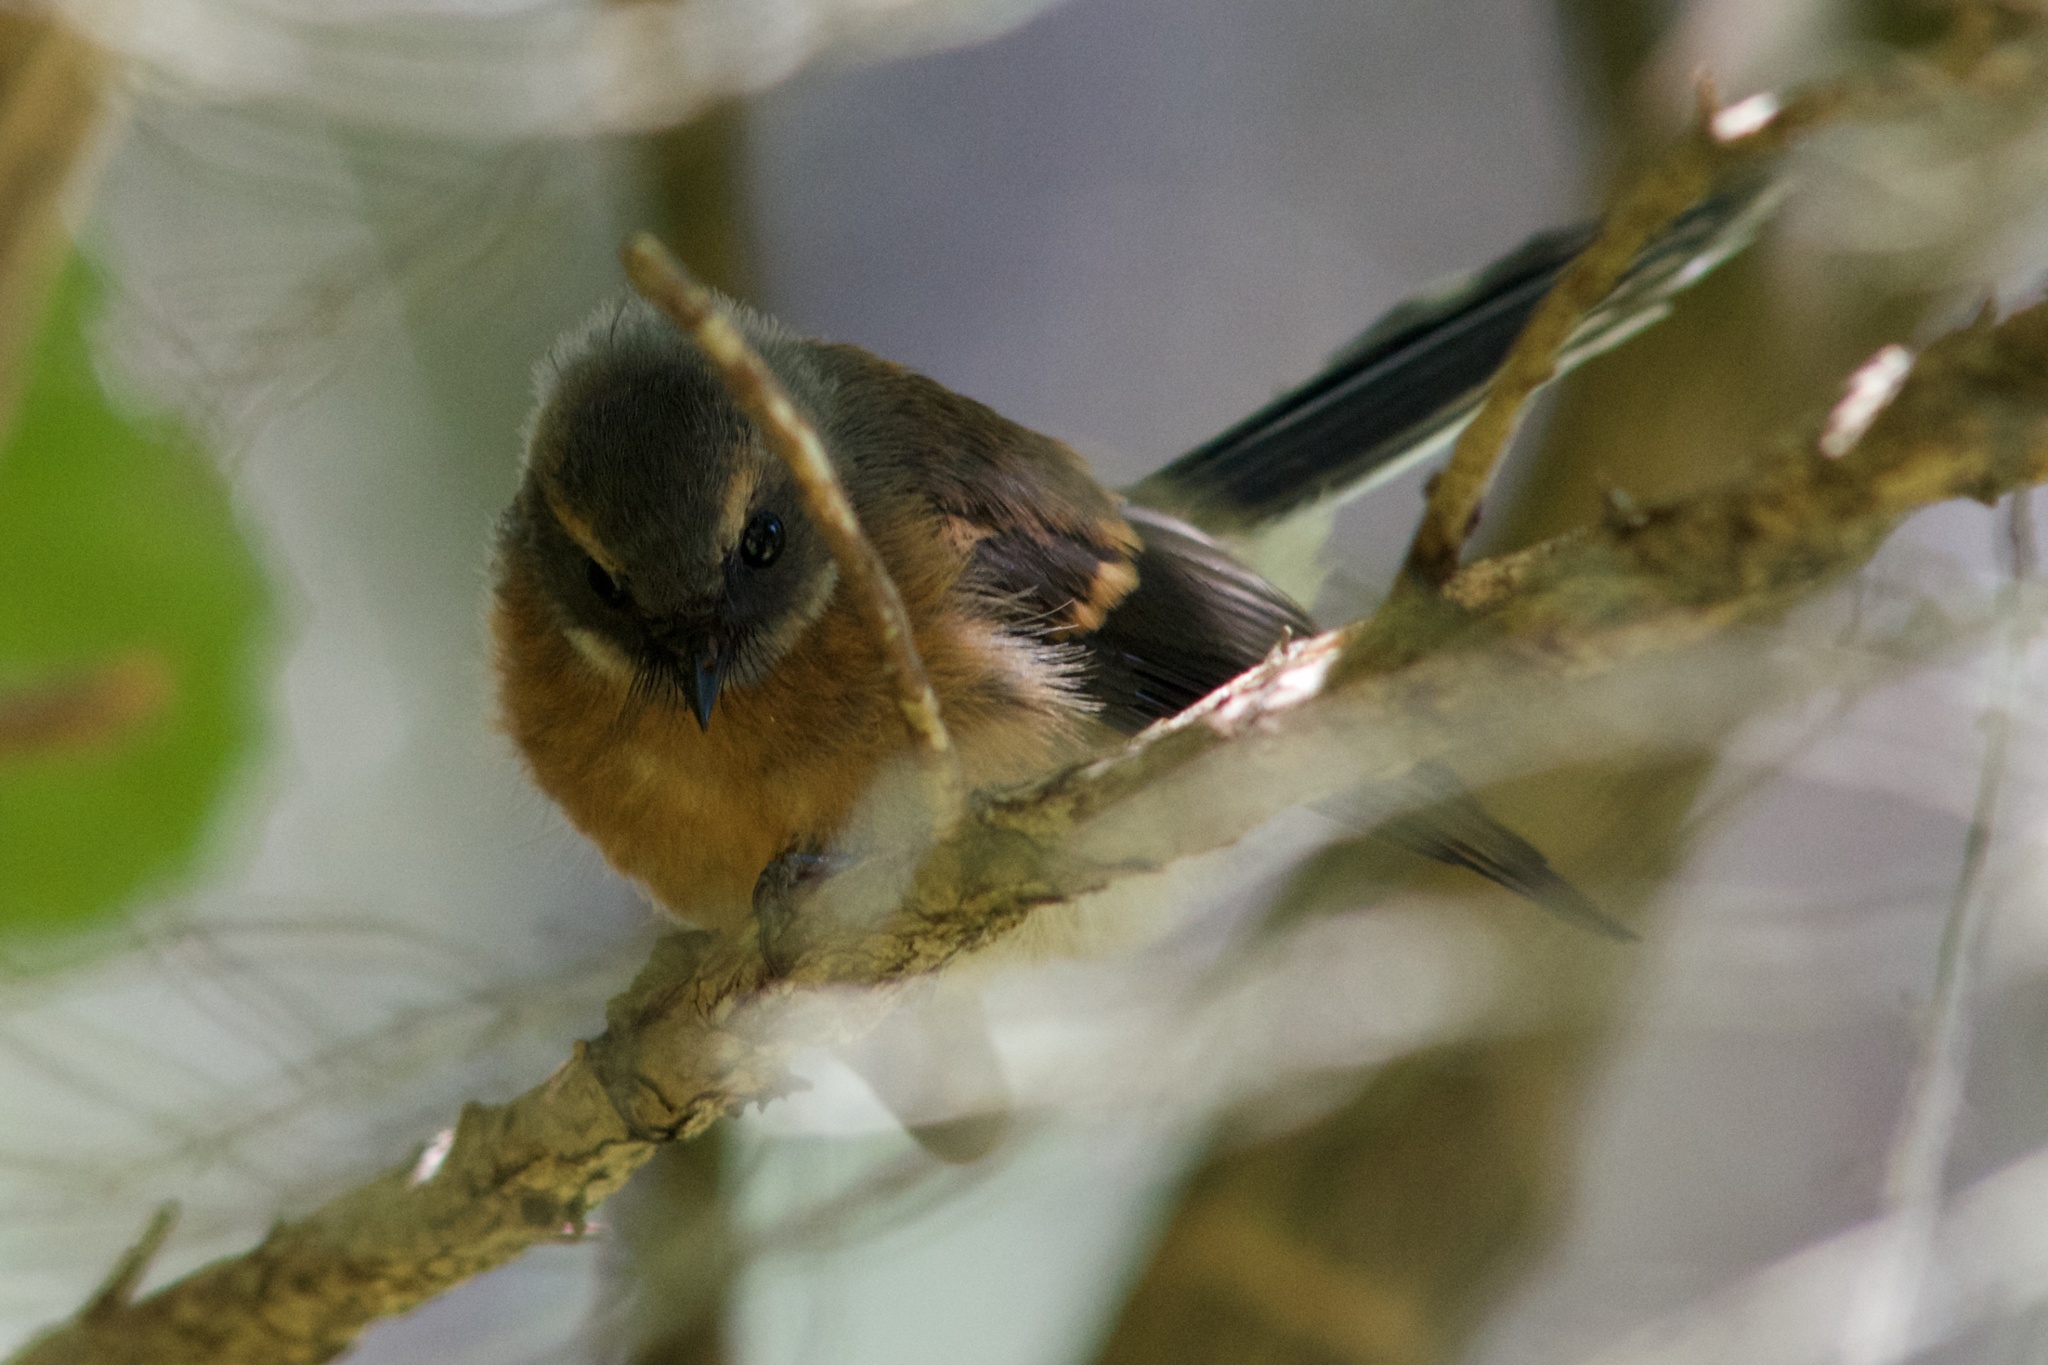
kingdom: Animalia
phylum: Chordata
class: Aves
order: Passeriformes
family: Rhipiduridae
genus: Rhipidura
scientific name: Rhipidura fuliginosa
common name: New zealand fantail
